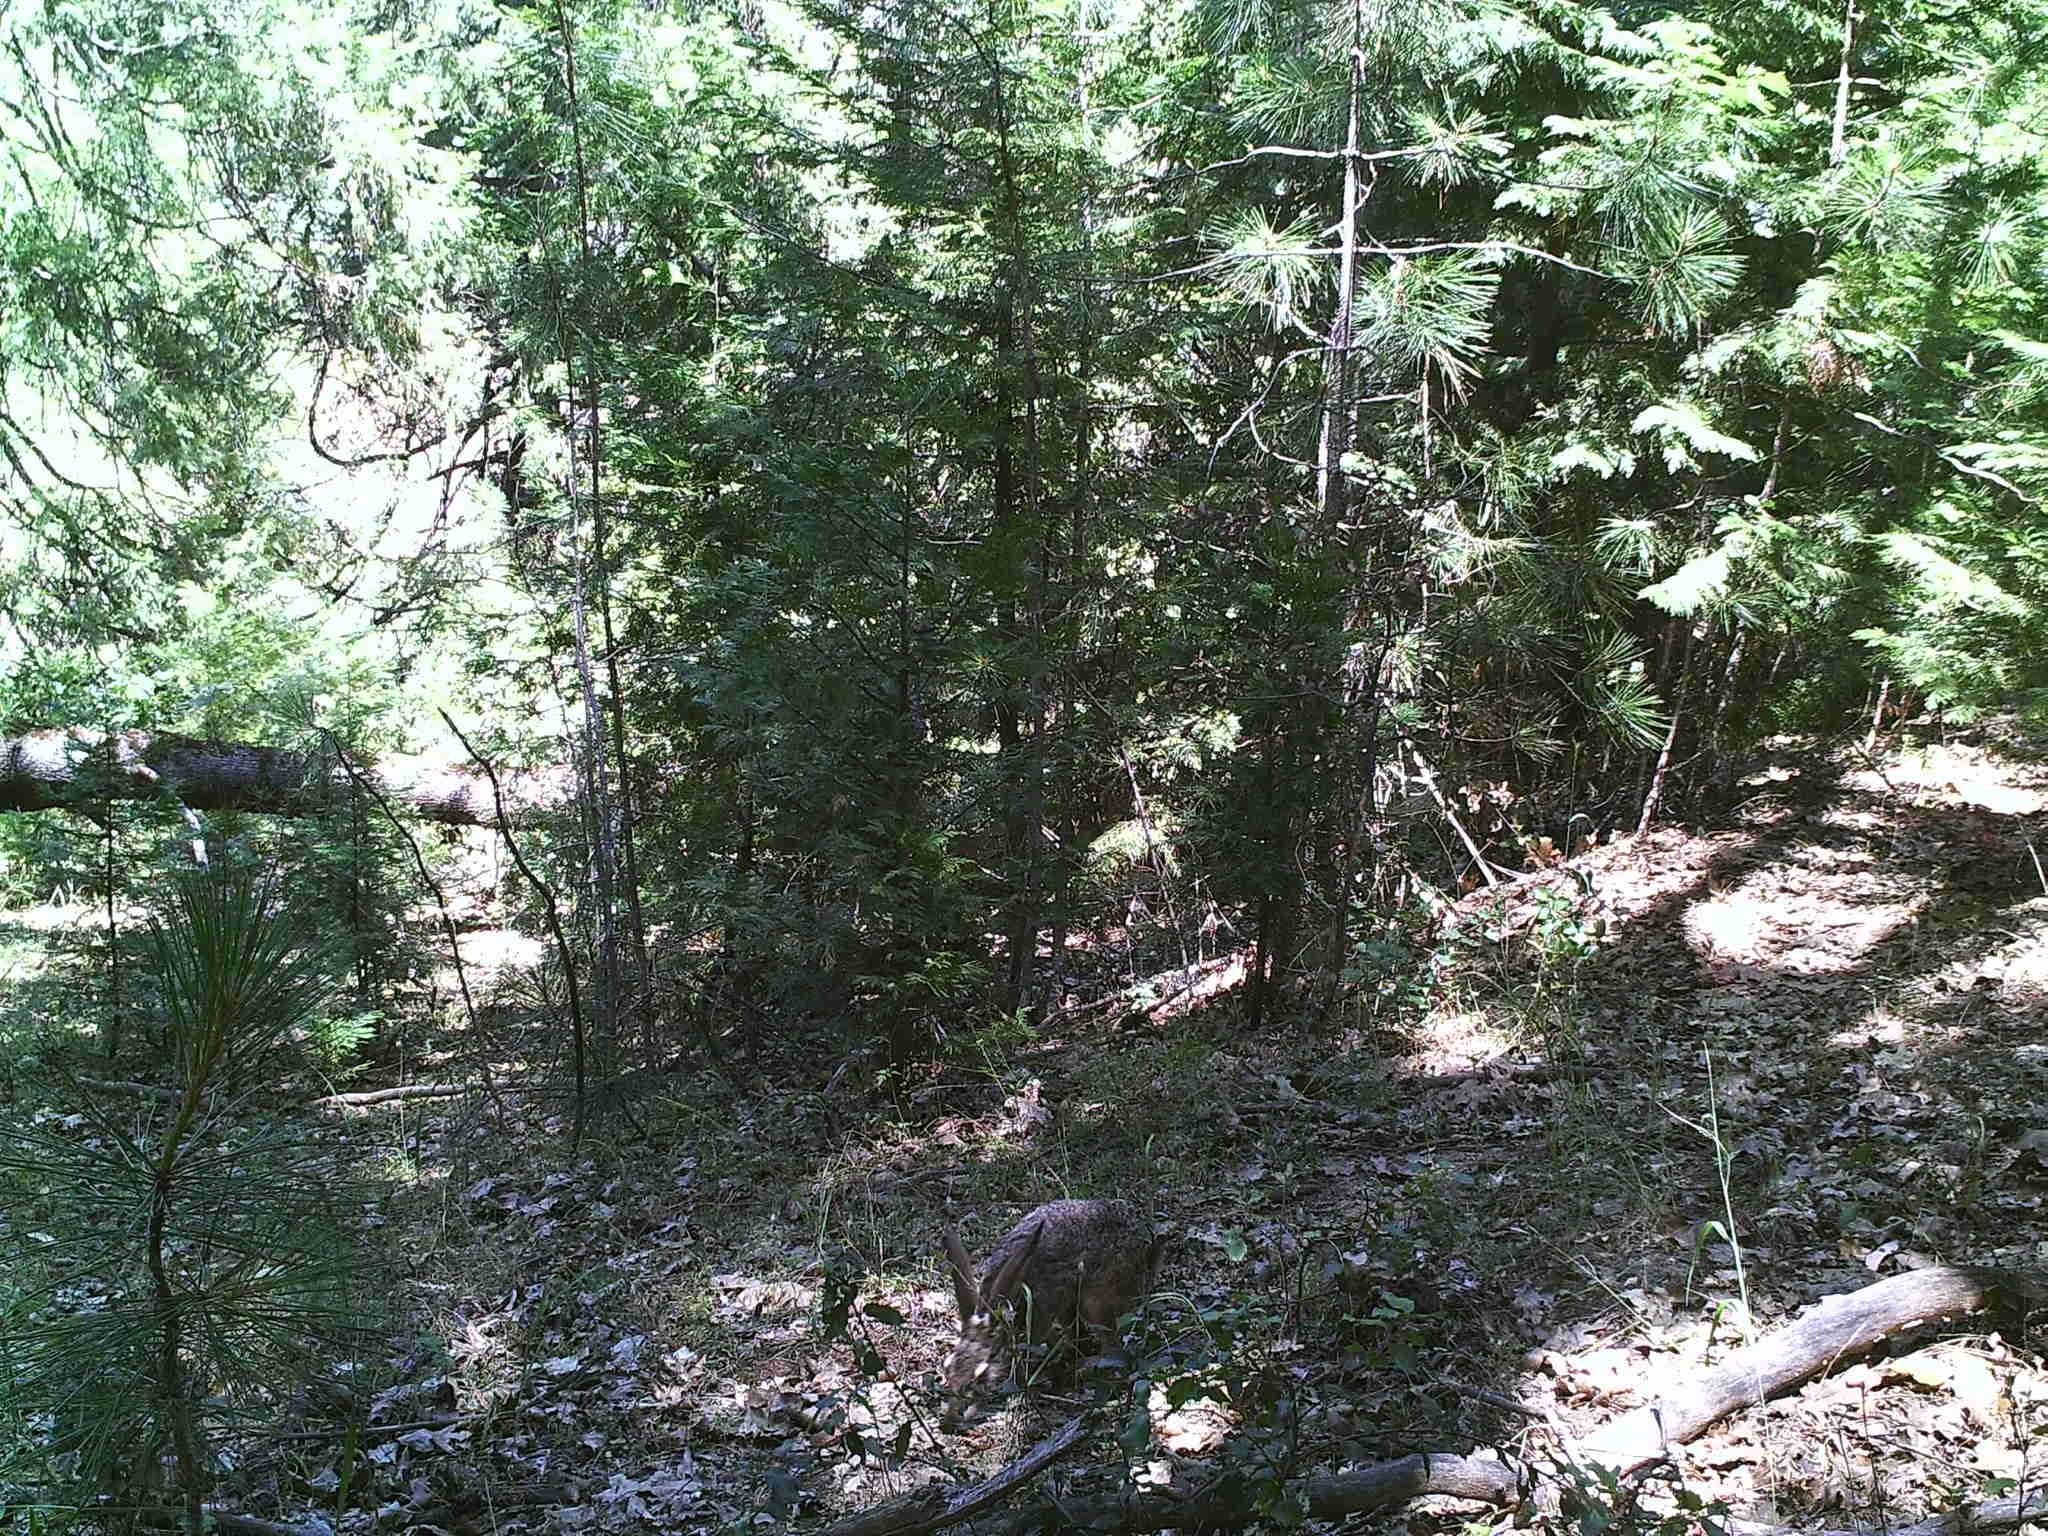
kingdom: Animalia
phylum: Chordata
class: Mammalia
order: Lagomorpha
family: Leporidae
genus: Lepus
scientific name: Lepus californicus
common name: Black-tailed jackrabbit
